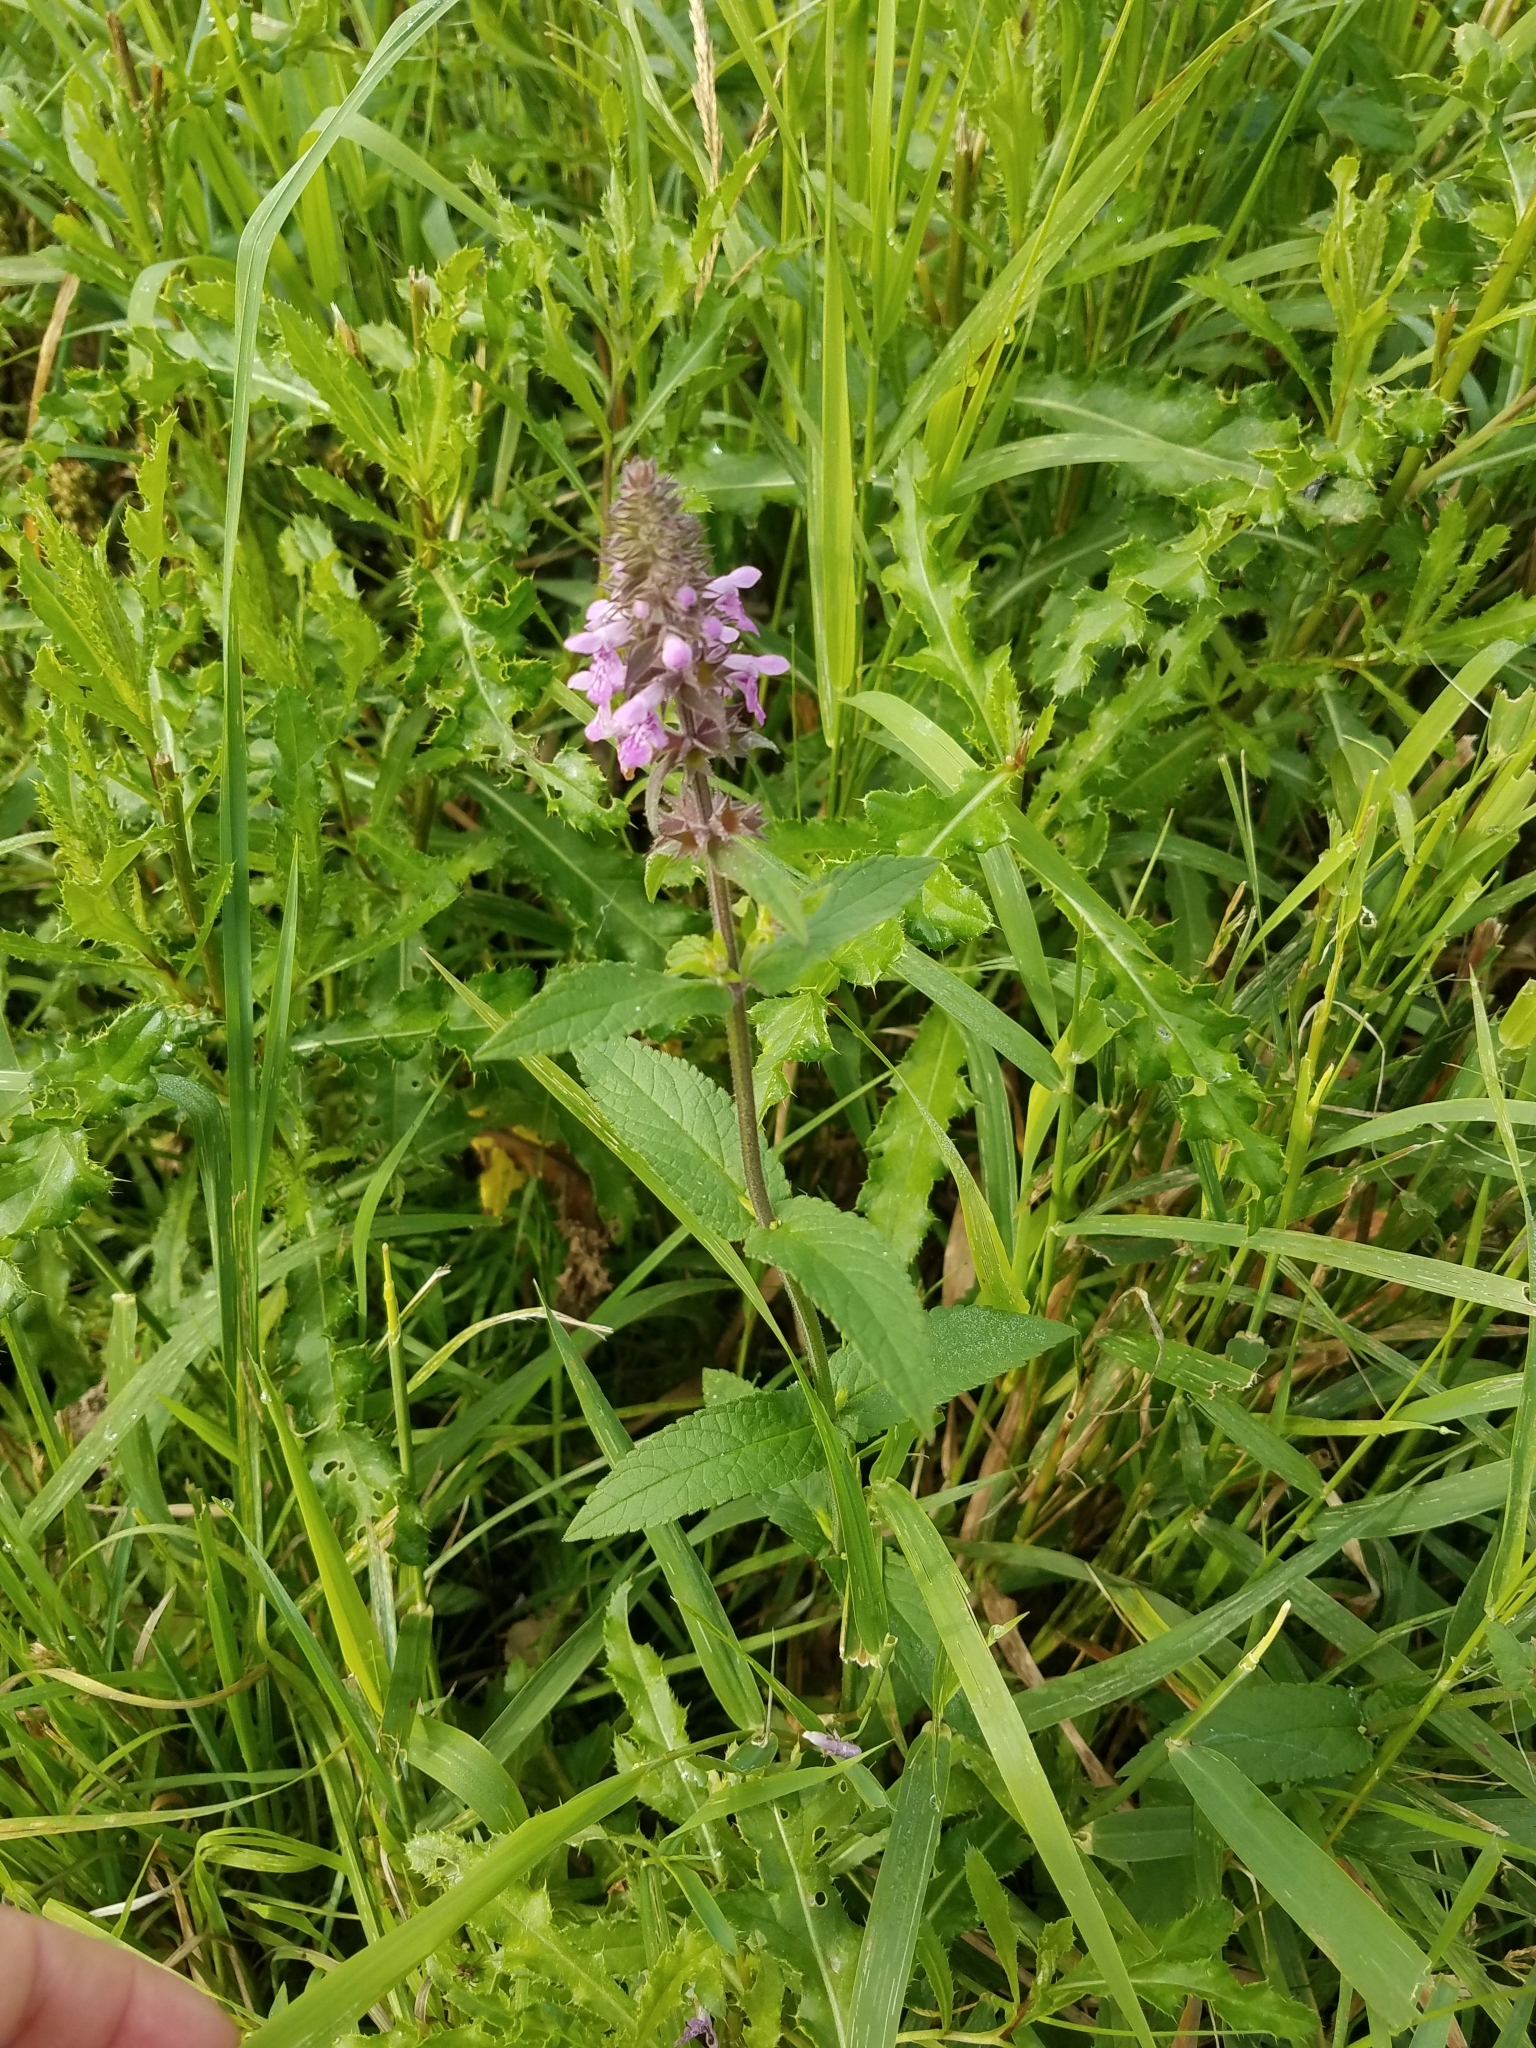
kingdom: Plantae
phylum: Tracheophyta
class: Magnoliopsida
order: Lamiales
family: Lamiaceae
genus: Stachys
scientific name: Stachys palustris
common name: Marsh woundwort
